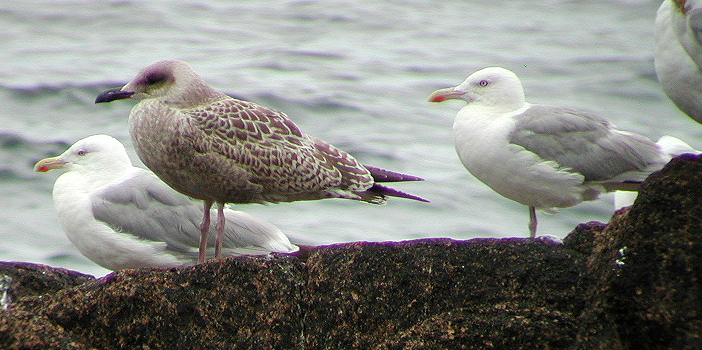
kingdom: Animalia
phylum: Chordata
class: Aves
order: Charadriiformes
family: Laridae
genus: Larus
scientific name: Larus argentatus
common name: Herring gull
